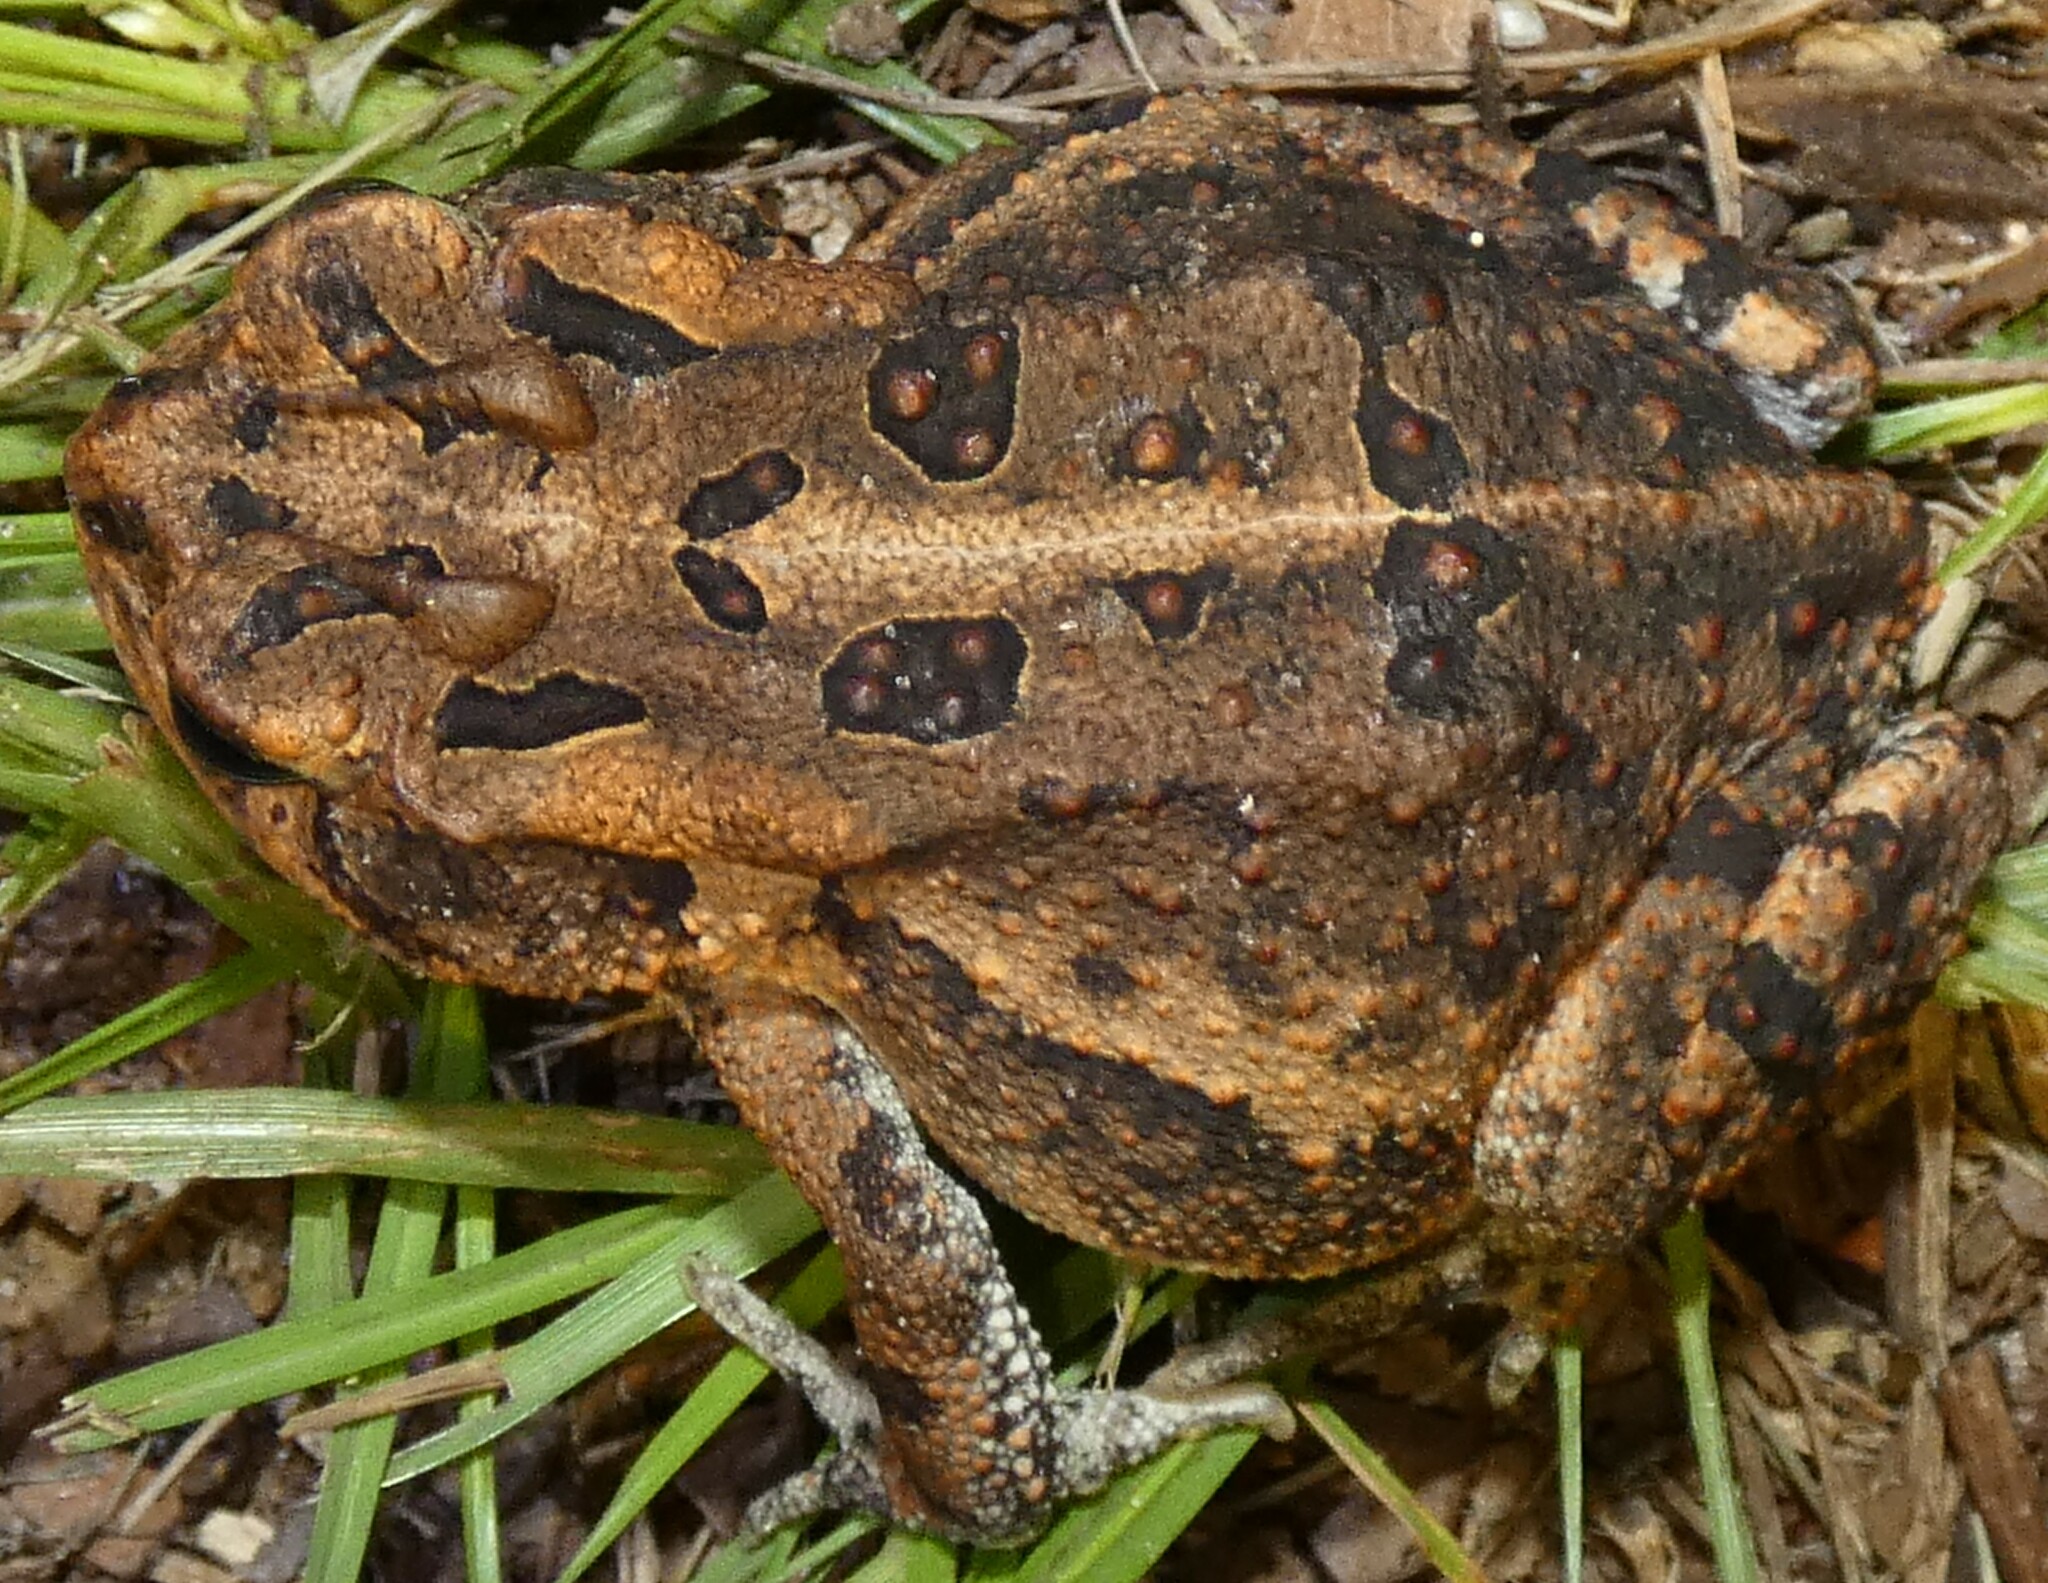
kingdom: Animalia
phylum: Chordata
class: Amphibia
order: Anura
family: Bufonidae
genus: Anaxyrus
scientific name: Anaxyrus terrestris
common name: Southern toad
